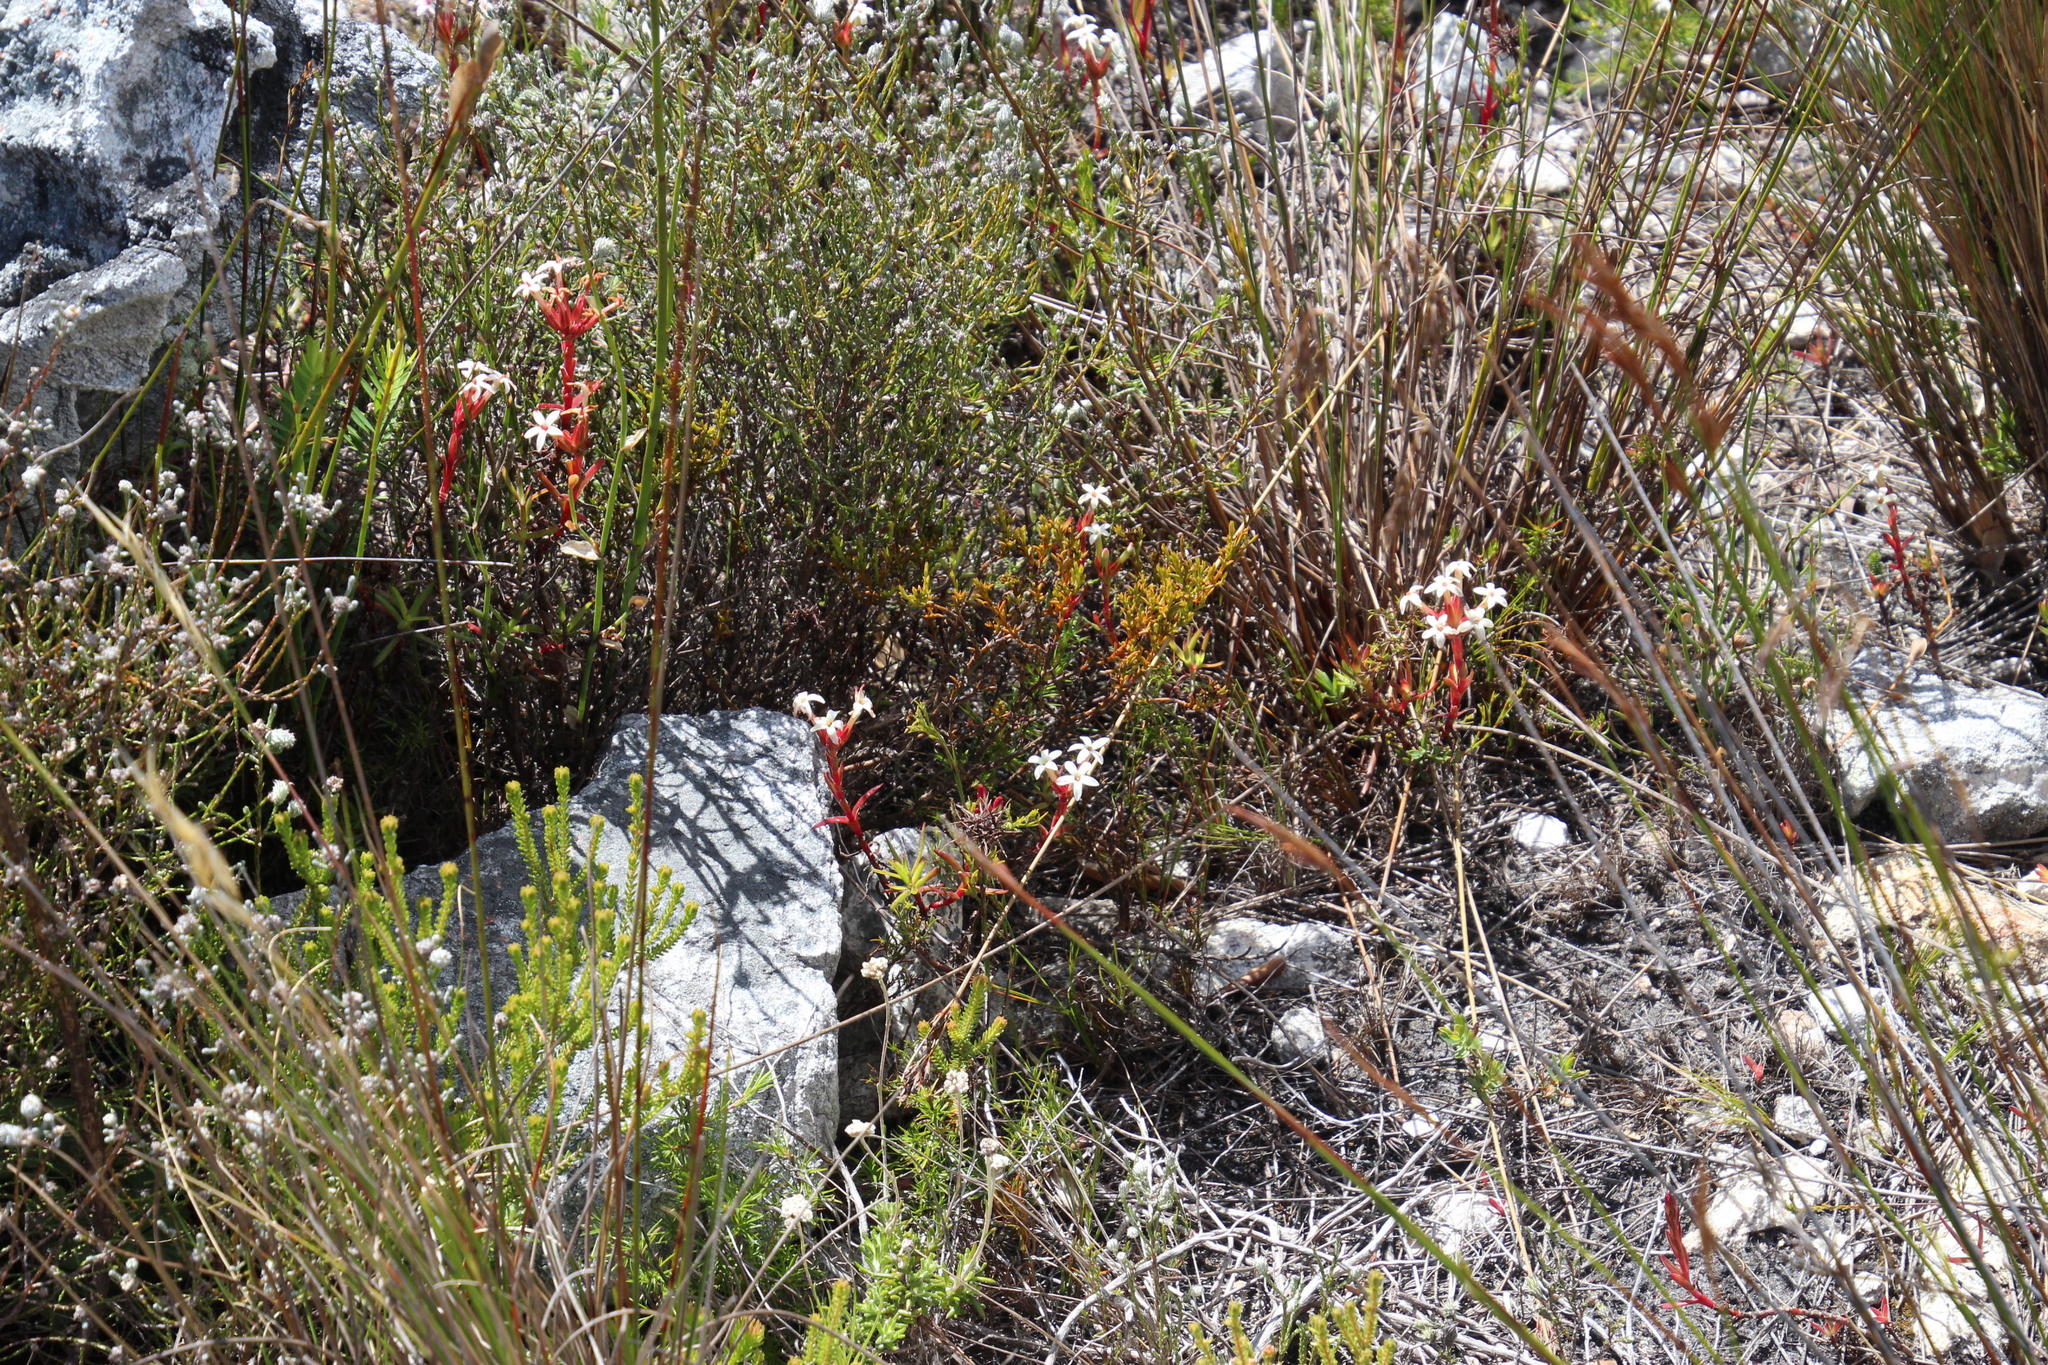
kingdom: Plantae
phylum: Tracheophyta
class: Magnoliopsida
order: Saxifragales
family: Crassulaceae
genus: Crassula
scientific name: Crassula fascicularis
